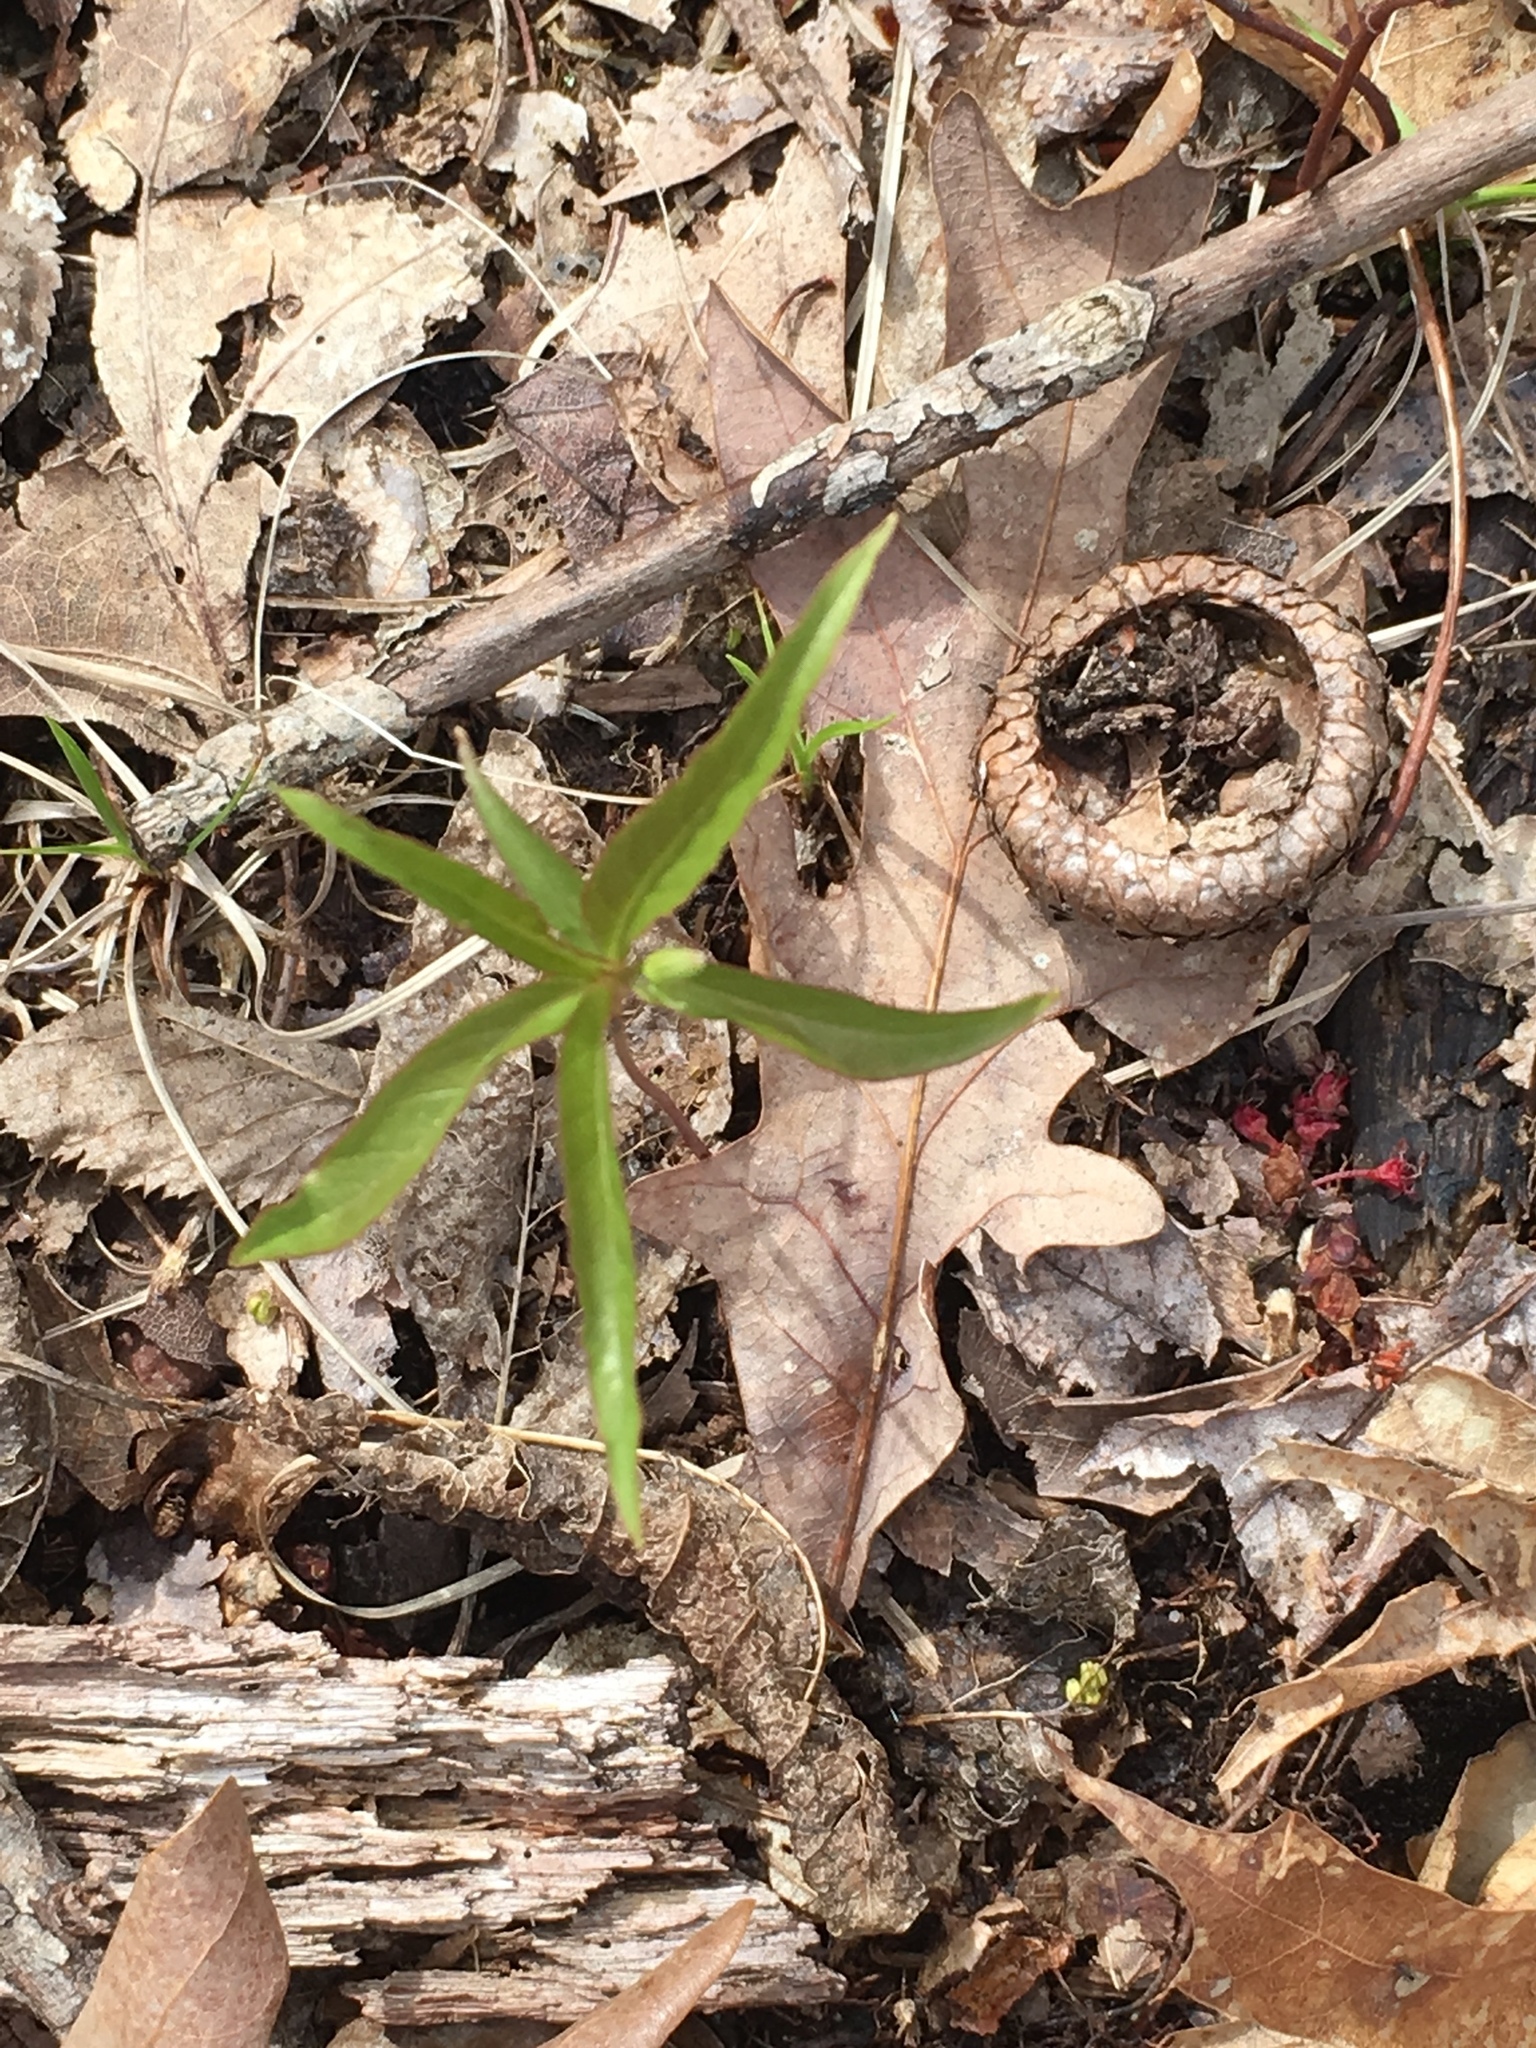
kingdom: Plantae
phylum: Tracheophyta
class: Magnoliopsida
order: Ericales
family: Primulaceae
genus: Lysimachia
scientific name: Lysimachia borealis
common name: American starflower
